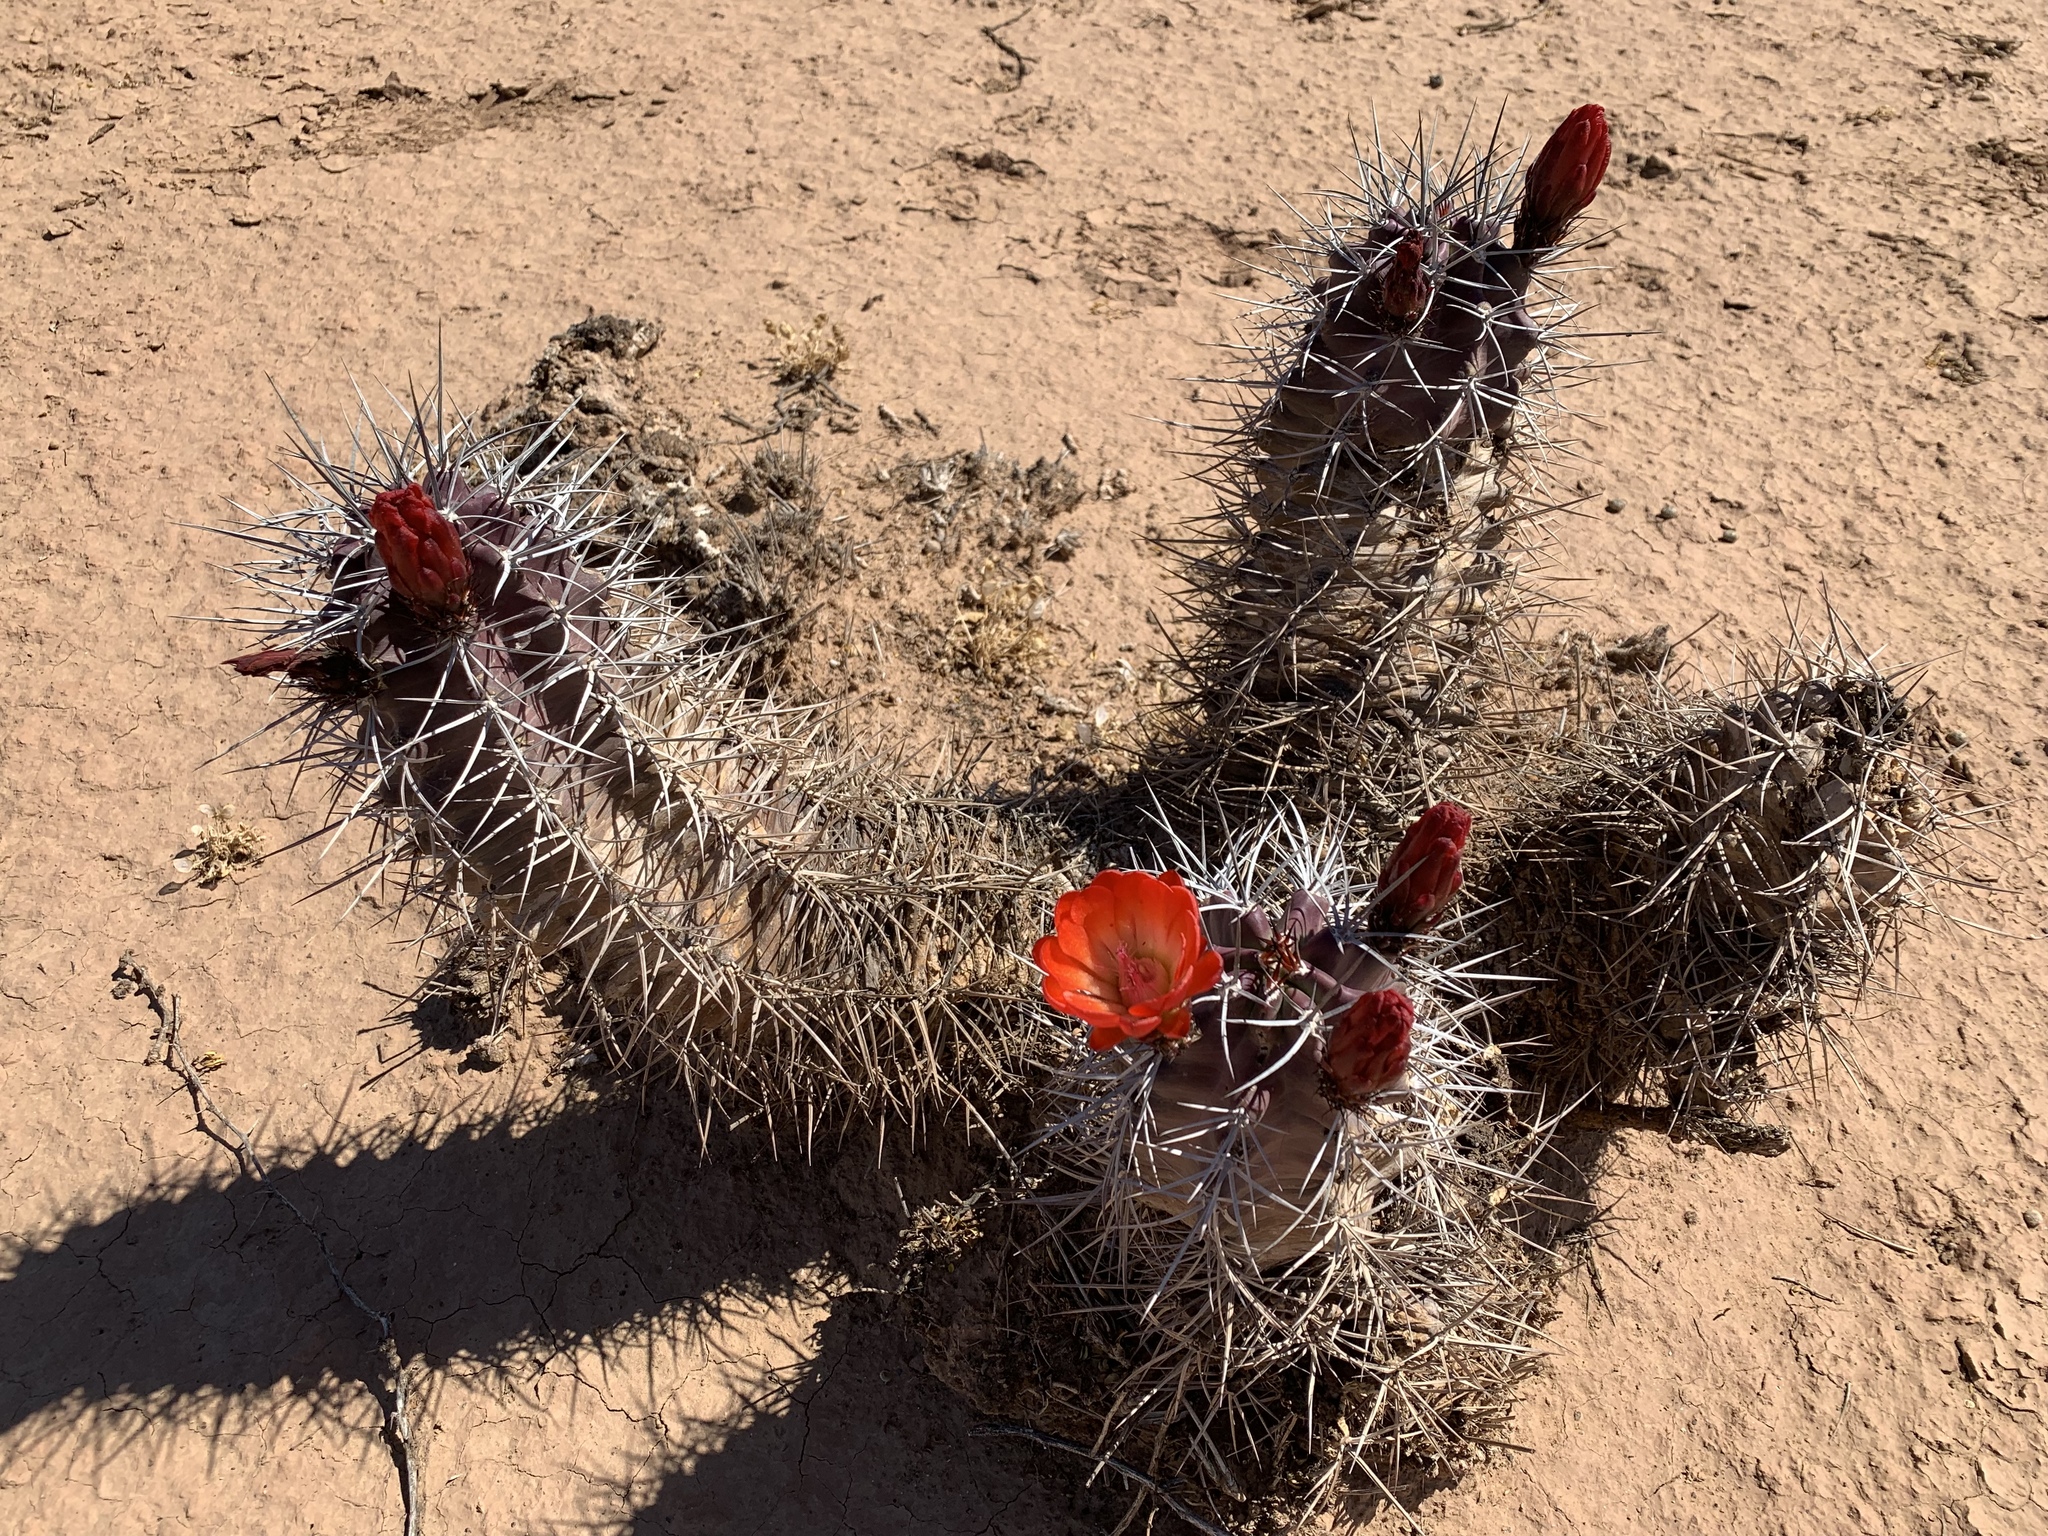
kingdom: Plantae
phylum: Tracheophyta
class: Magnoliopsida
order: Caryophyllales
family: Cactaceae
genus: Echinocereus
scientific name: Echinocereus triglochidiatus
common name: Claretcup hedgehog
